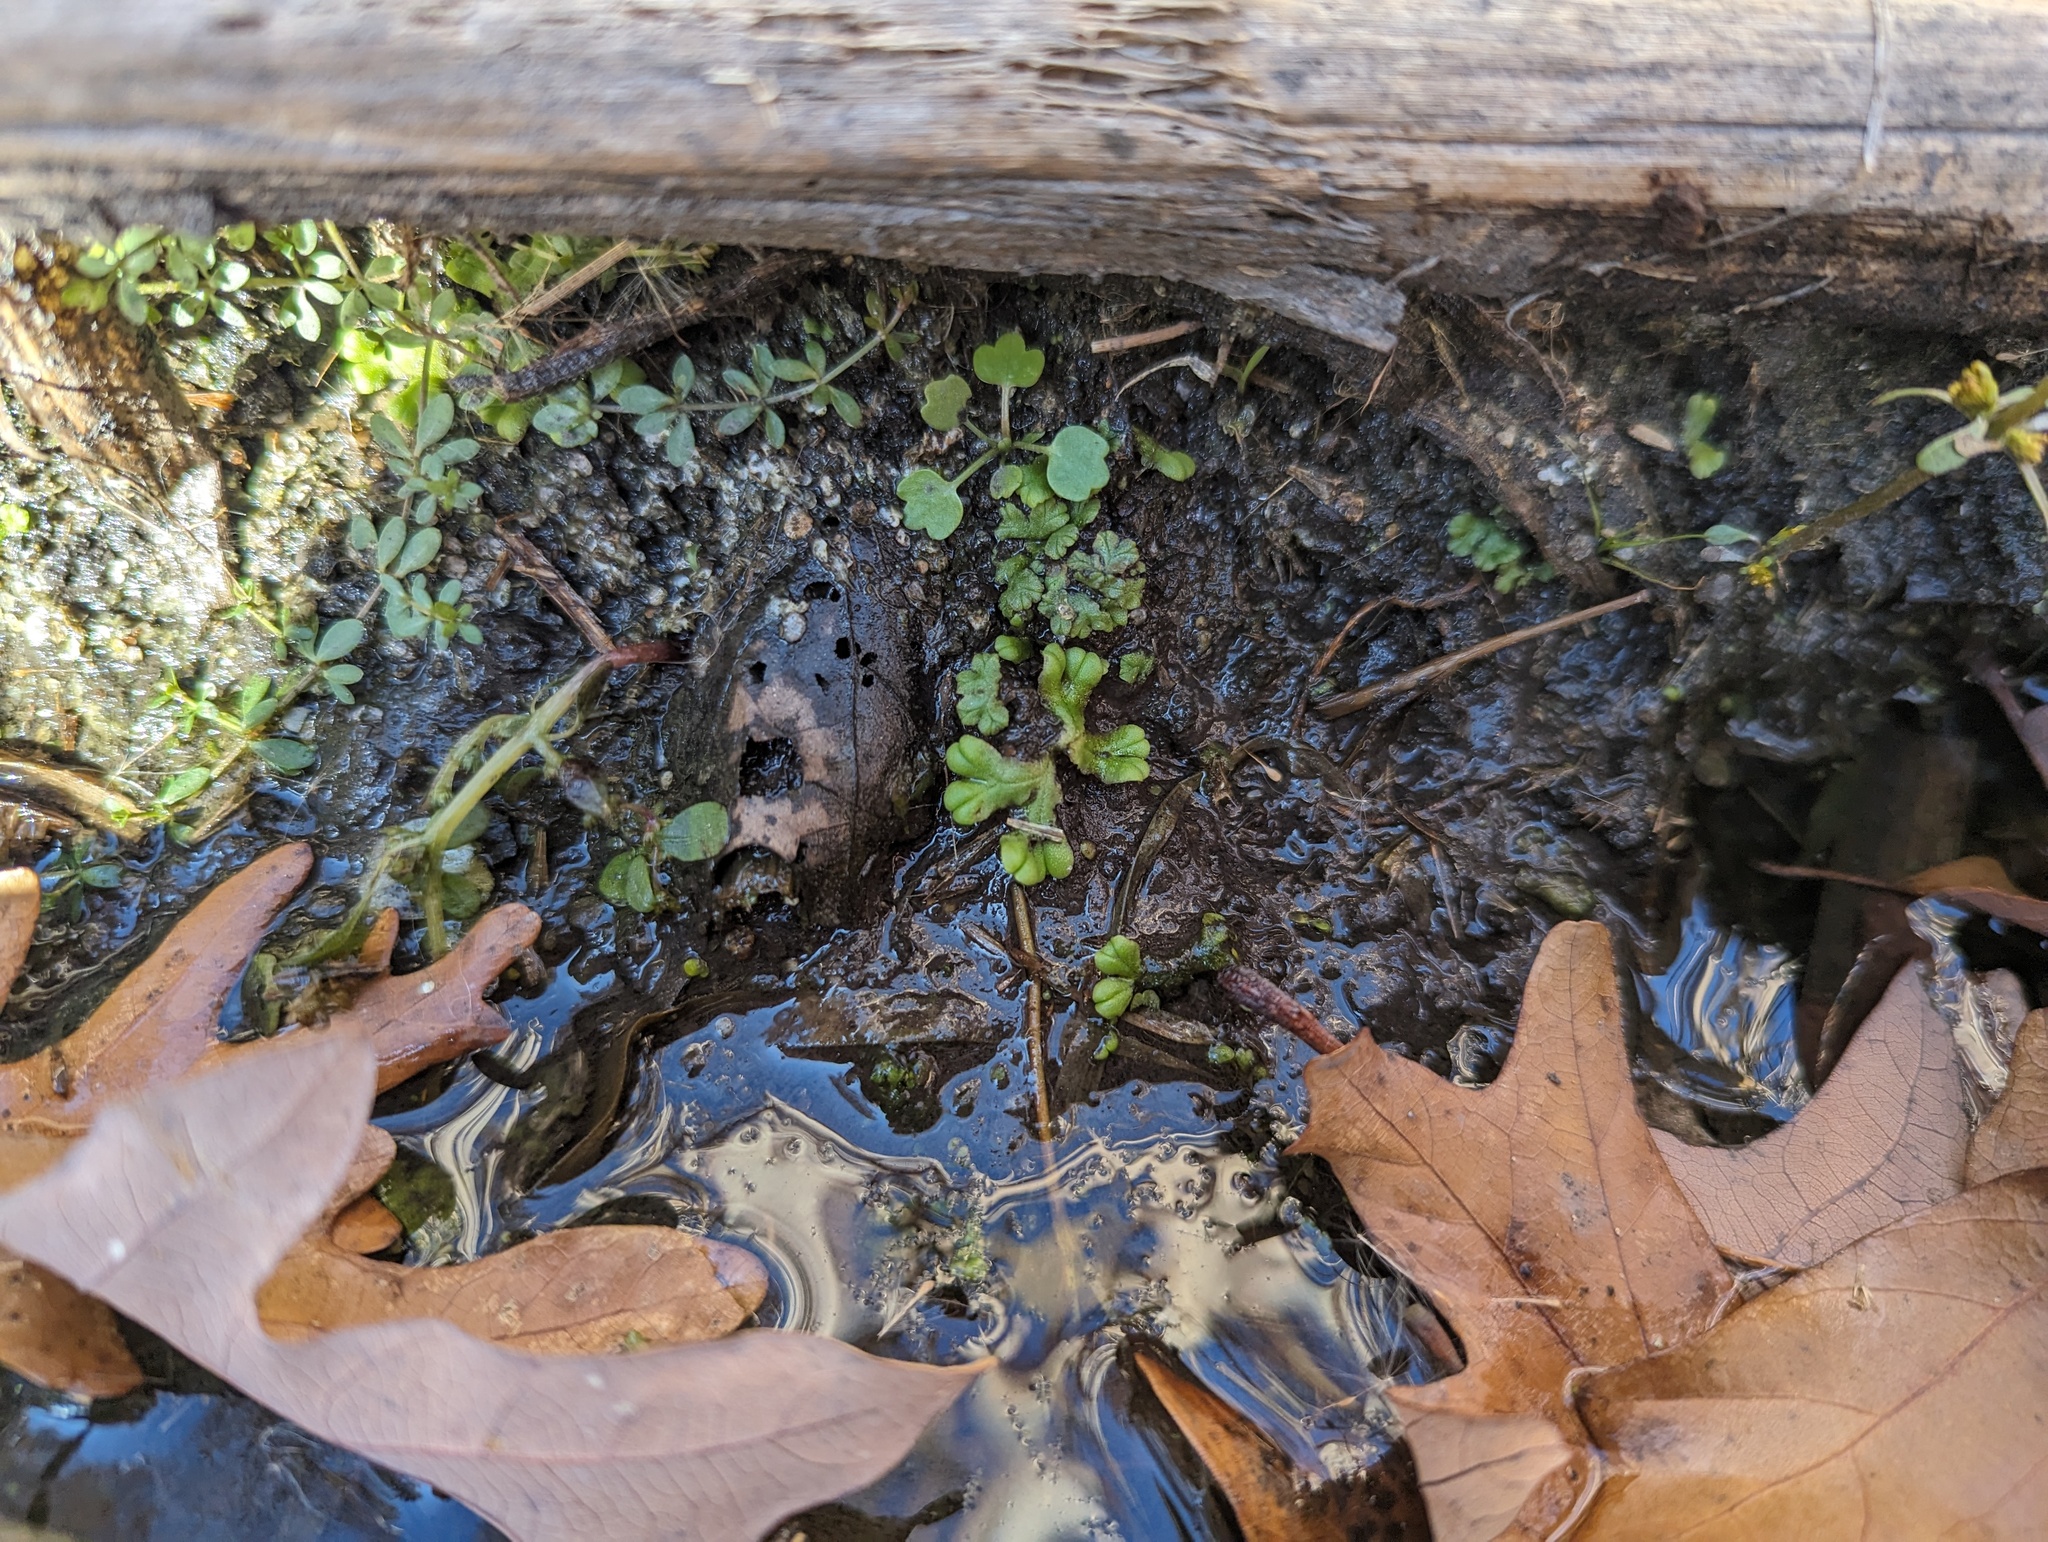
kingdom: Plantae
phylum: Marchantiophyta
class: Marchantiopsida
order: Marchantiales
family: Ricciaceae
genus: Ricciocarpos
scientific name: Ricciocarpos natans
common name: Purple-fringed liverwort
